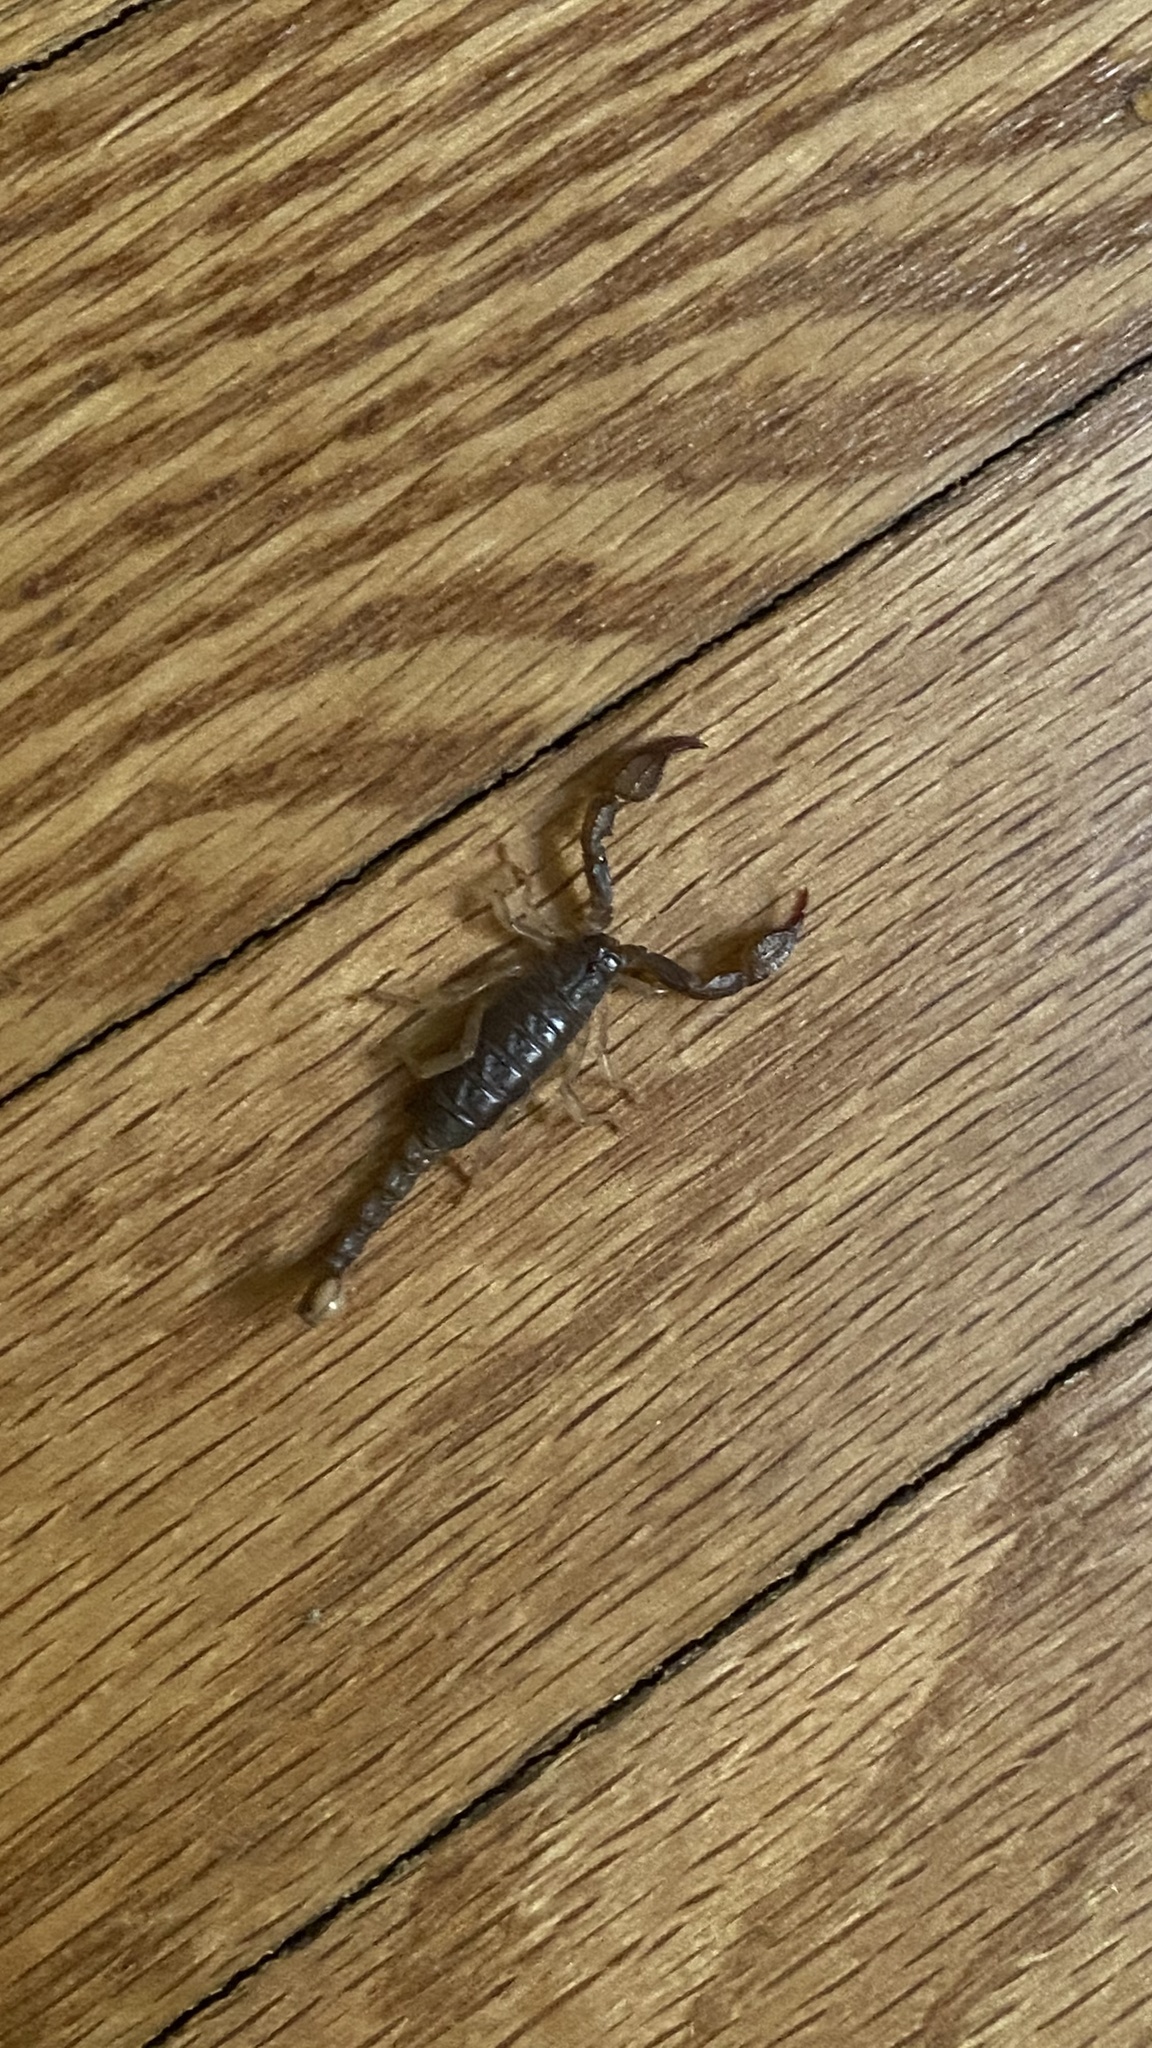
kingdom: Animalia
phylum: Arthropoda
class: Arachnida
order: Scorpiones
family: Chactidae
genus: Uroctonus
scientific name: Uroctonus mordax
